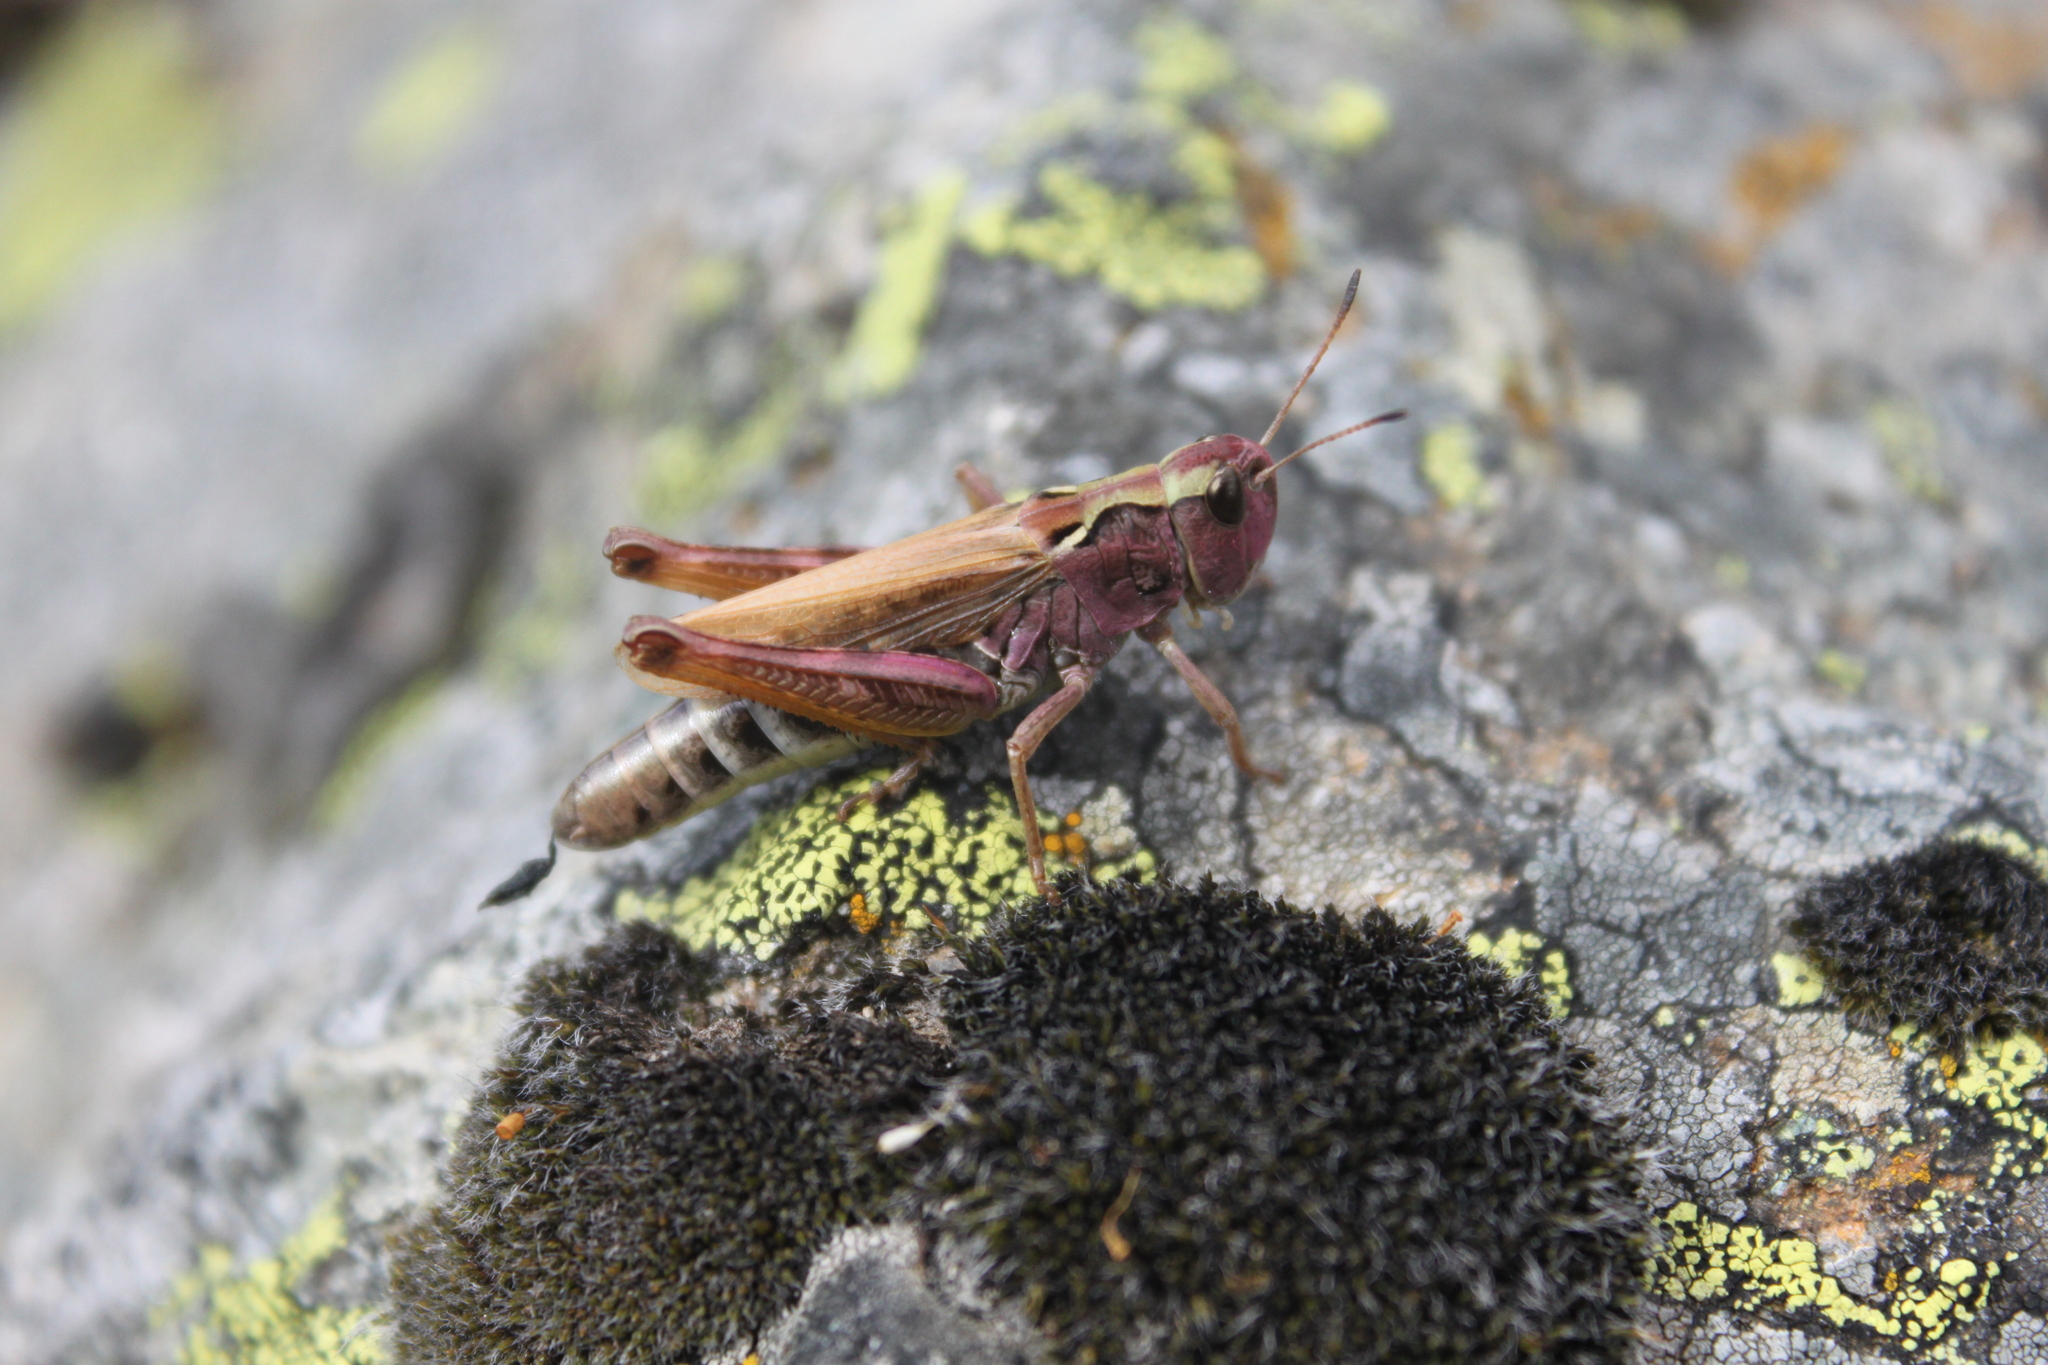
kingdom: Animalia
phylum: Arthropoda
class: Insecta
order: Orthoptera
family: Acrididae
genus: Gomphocerus
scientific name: Gomphocerus sibiricus
